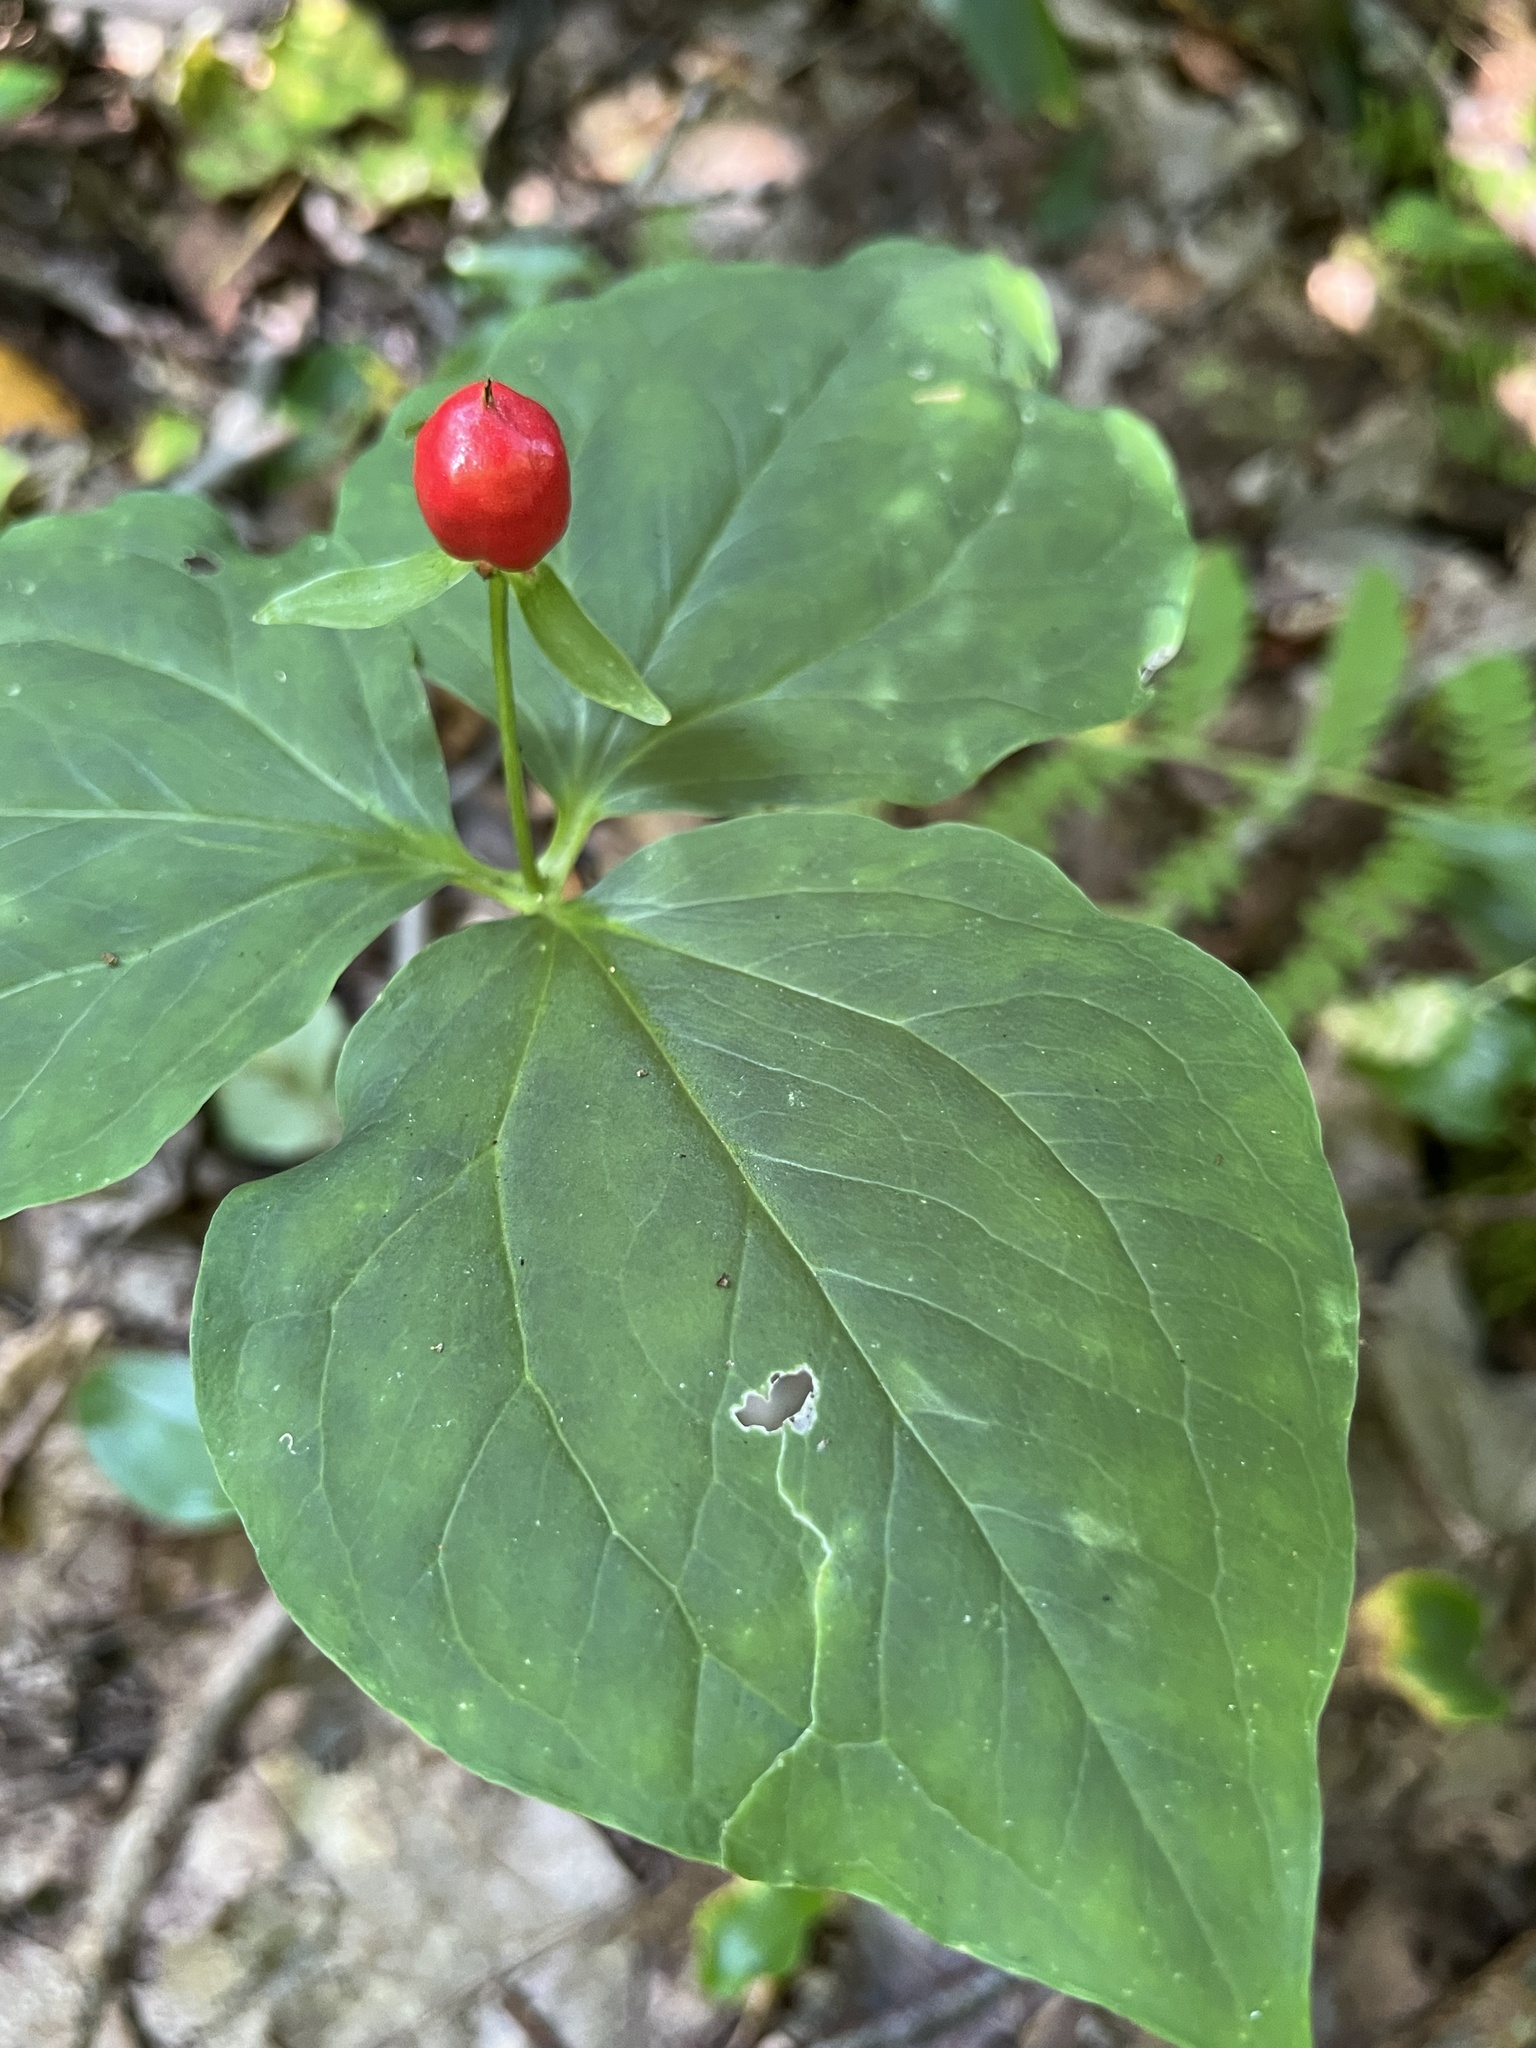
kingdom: Plantae
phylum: Tracheophyta
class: Liliopsida
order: Liliales
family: Melanthiaceae
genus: Trillium
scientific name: Trillium undulatum
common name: Paint trillium
